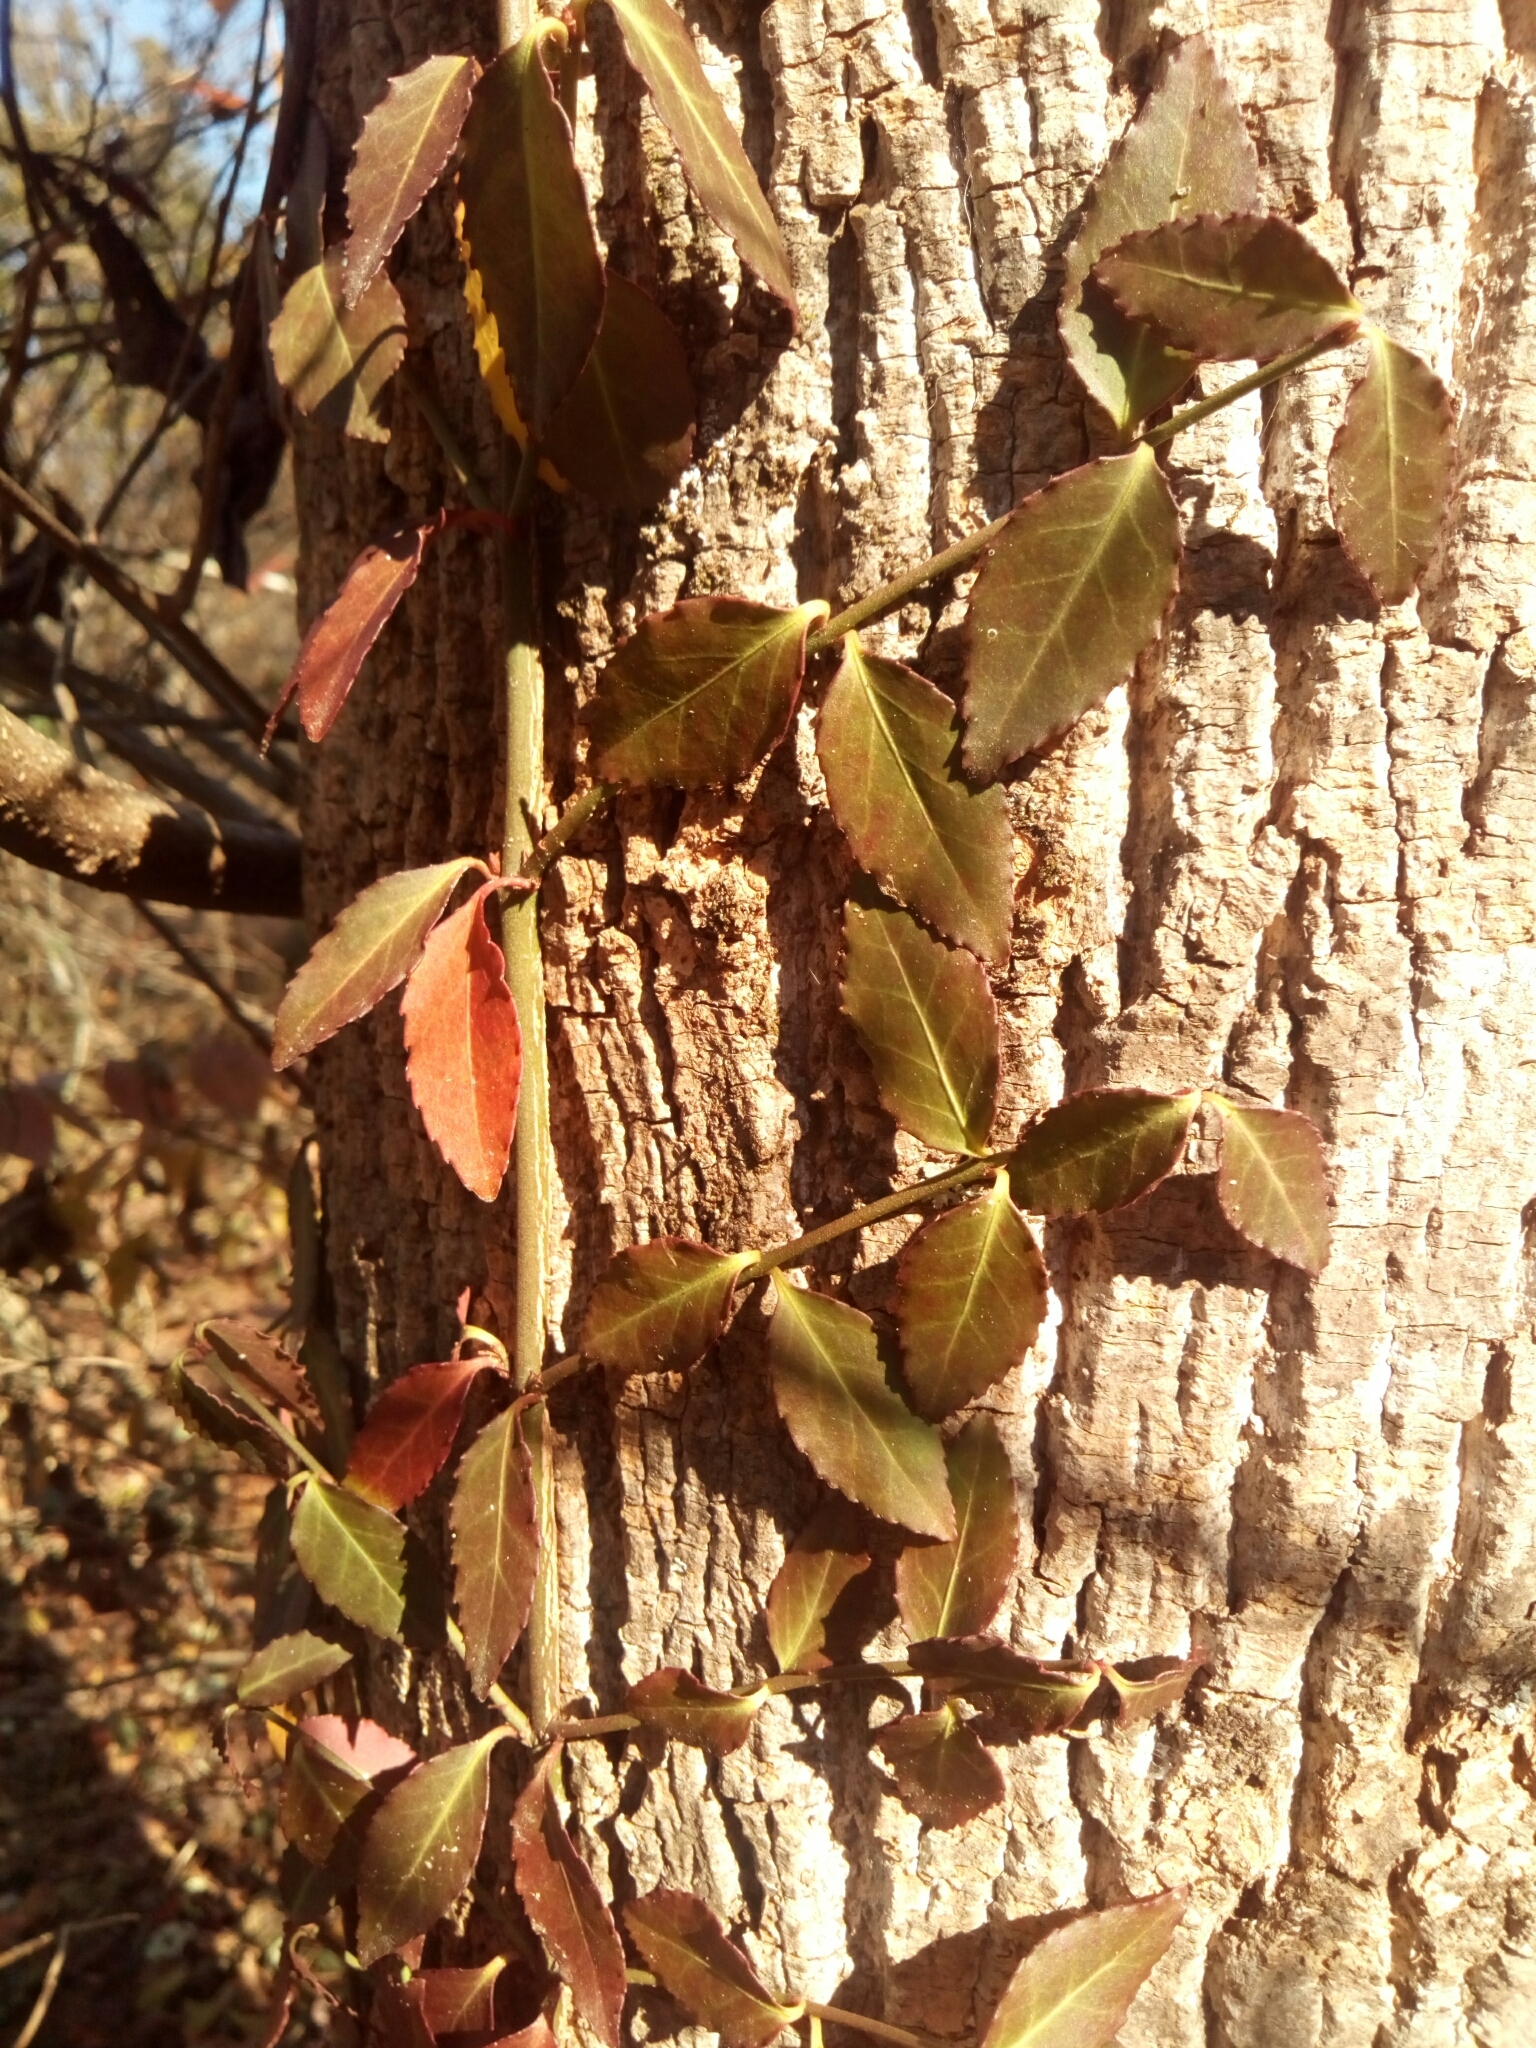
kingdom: Plantae
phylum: Tracheophyta
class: Magnoliopsida
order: Celastrales
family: Celastraceae
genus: Euonymus
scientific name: Euonymus fortunei
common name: Climbing euonymus
